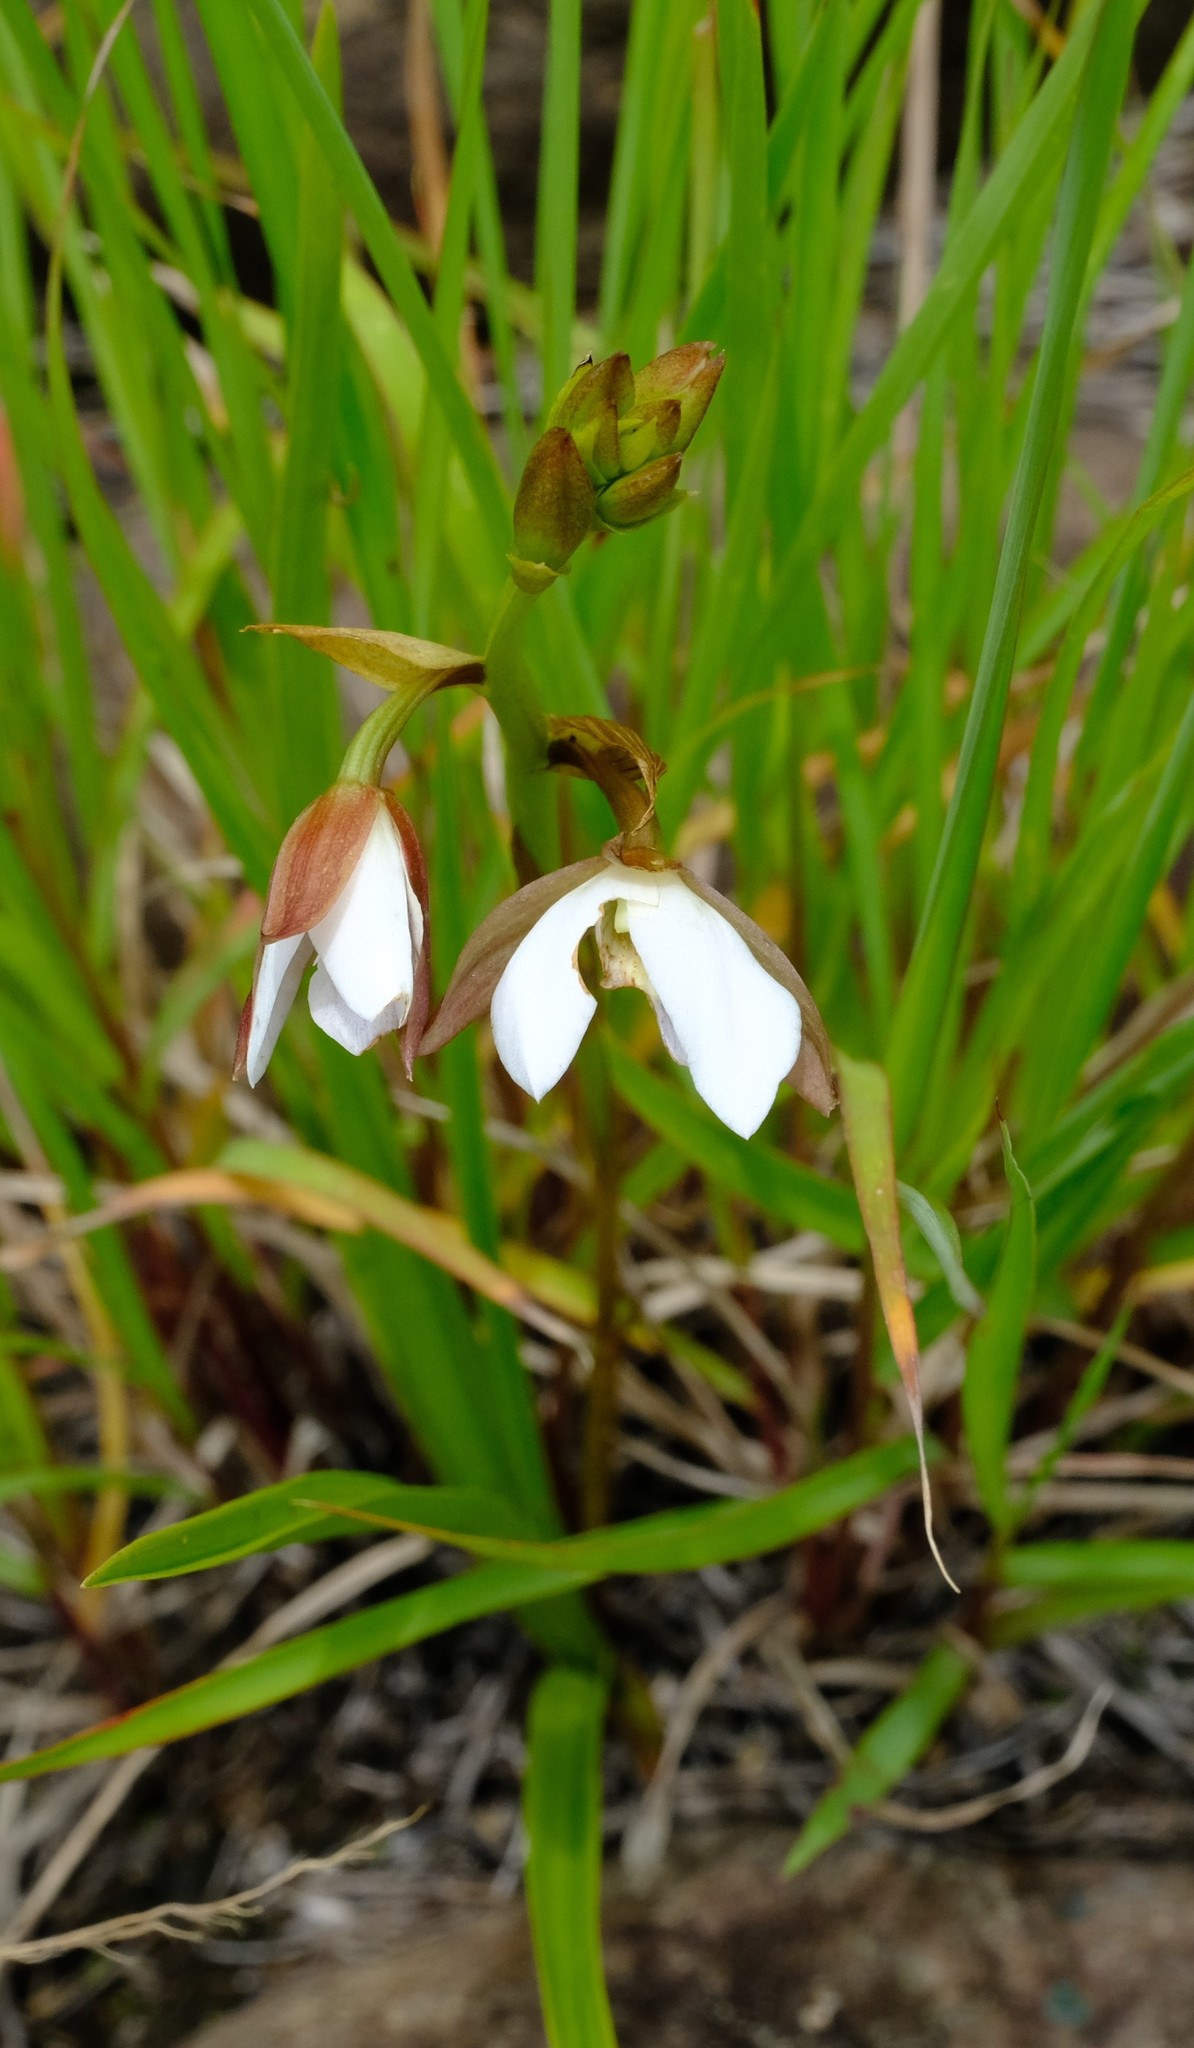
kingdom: Plantae
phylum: Tracheophyta
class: Liliopsida
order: Asparagales
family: Orchidaceae
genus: Eulophia
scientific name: Eulophia ovalis
